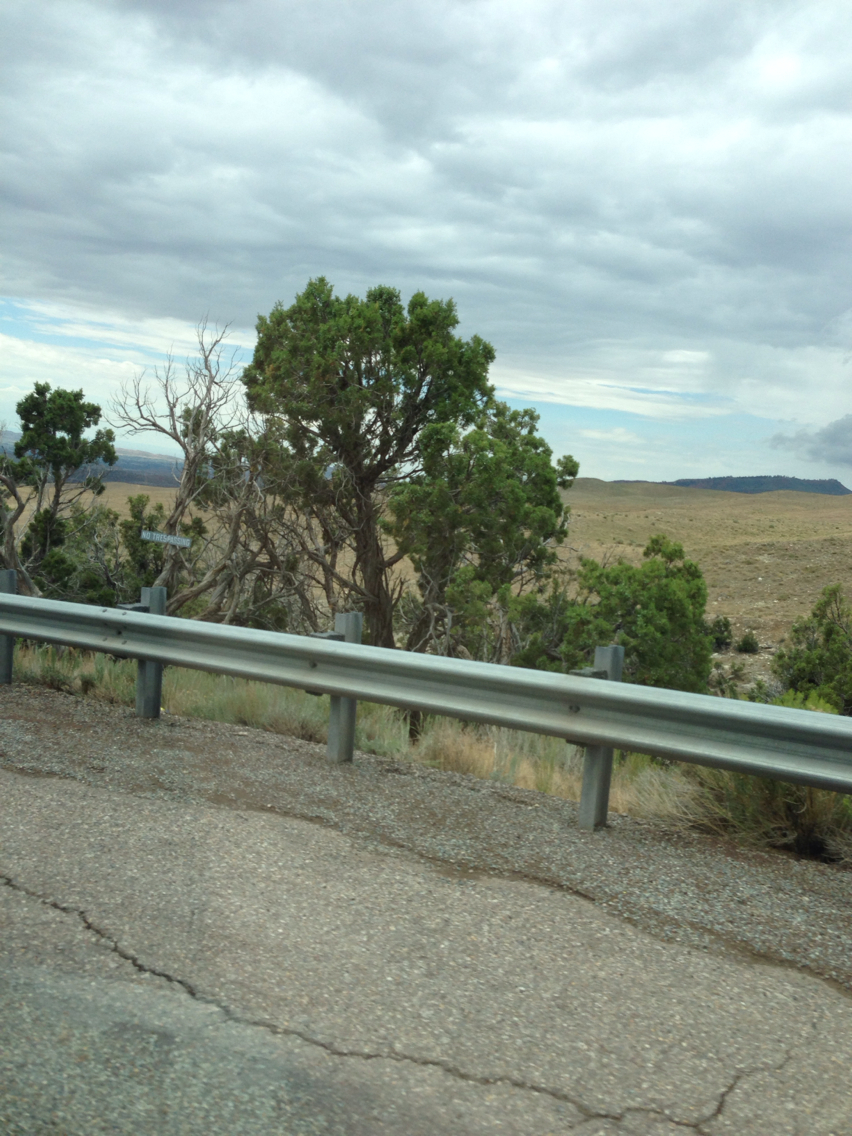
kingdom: Plantae
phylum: Tracheophyta
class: Pinopsida
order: Pinales
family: Cupressaceae
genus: Juniperus
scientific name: Juniperus osteosperma
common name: Utah juniper
